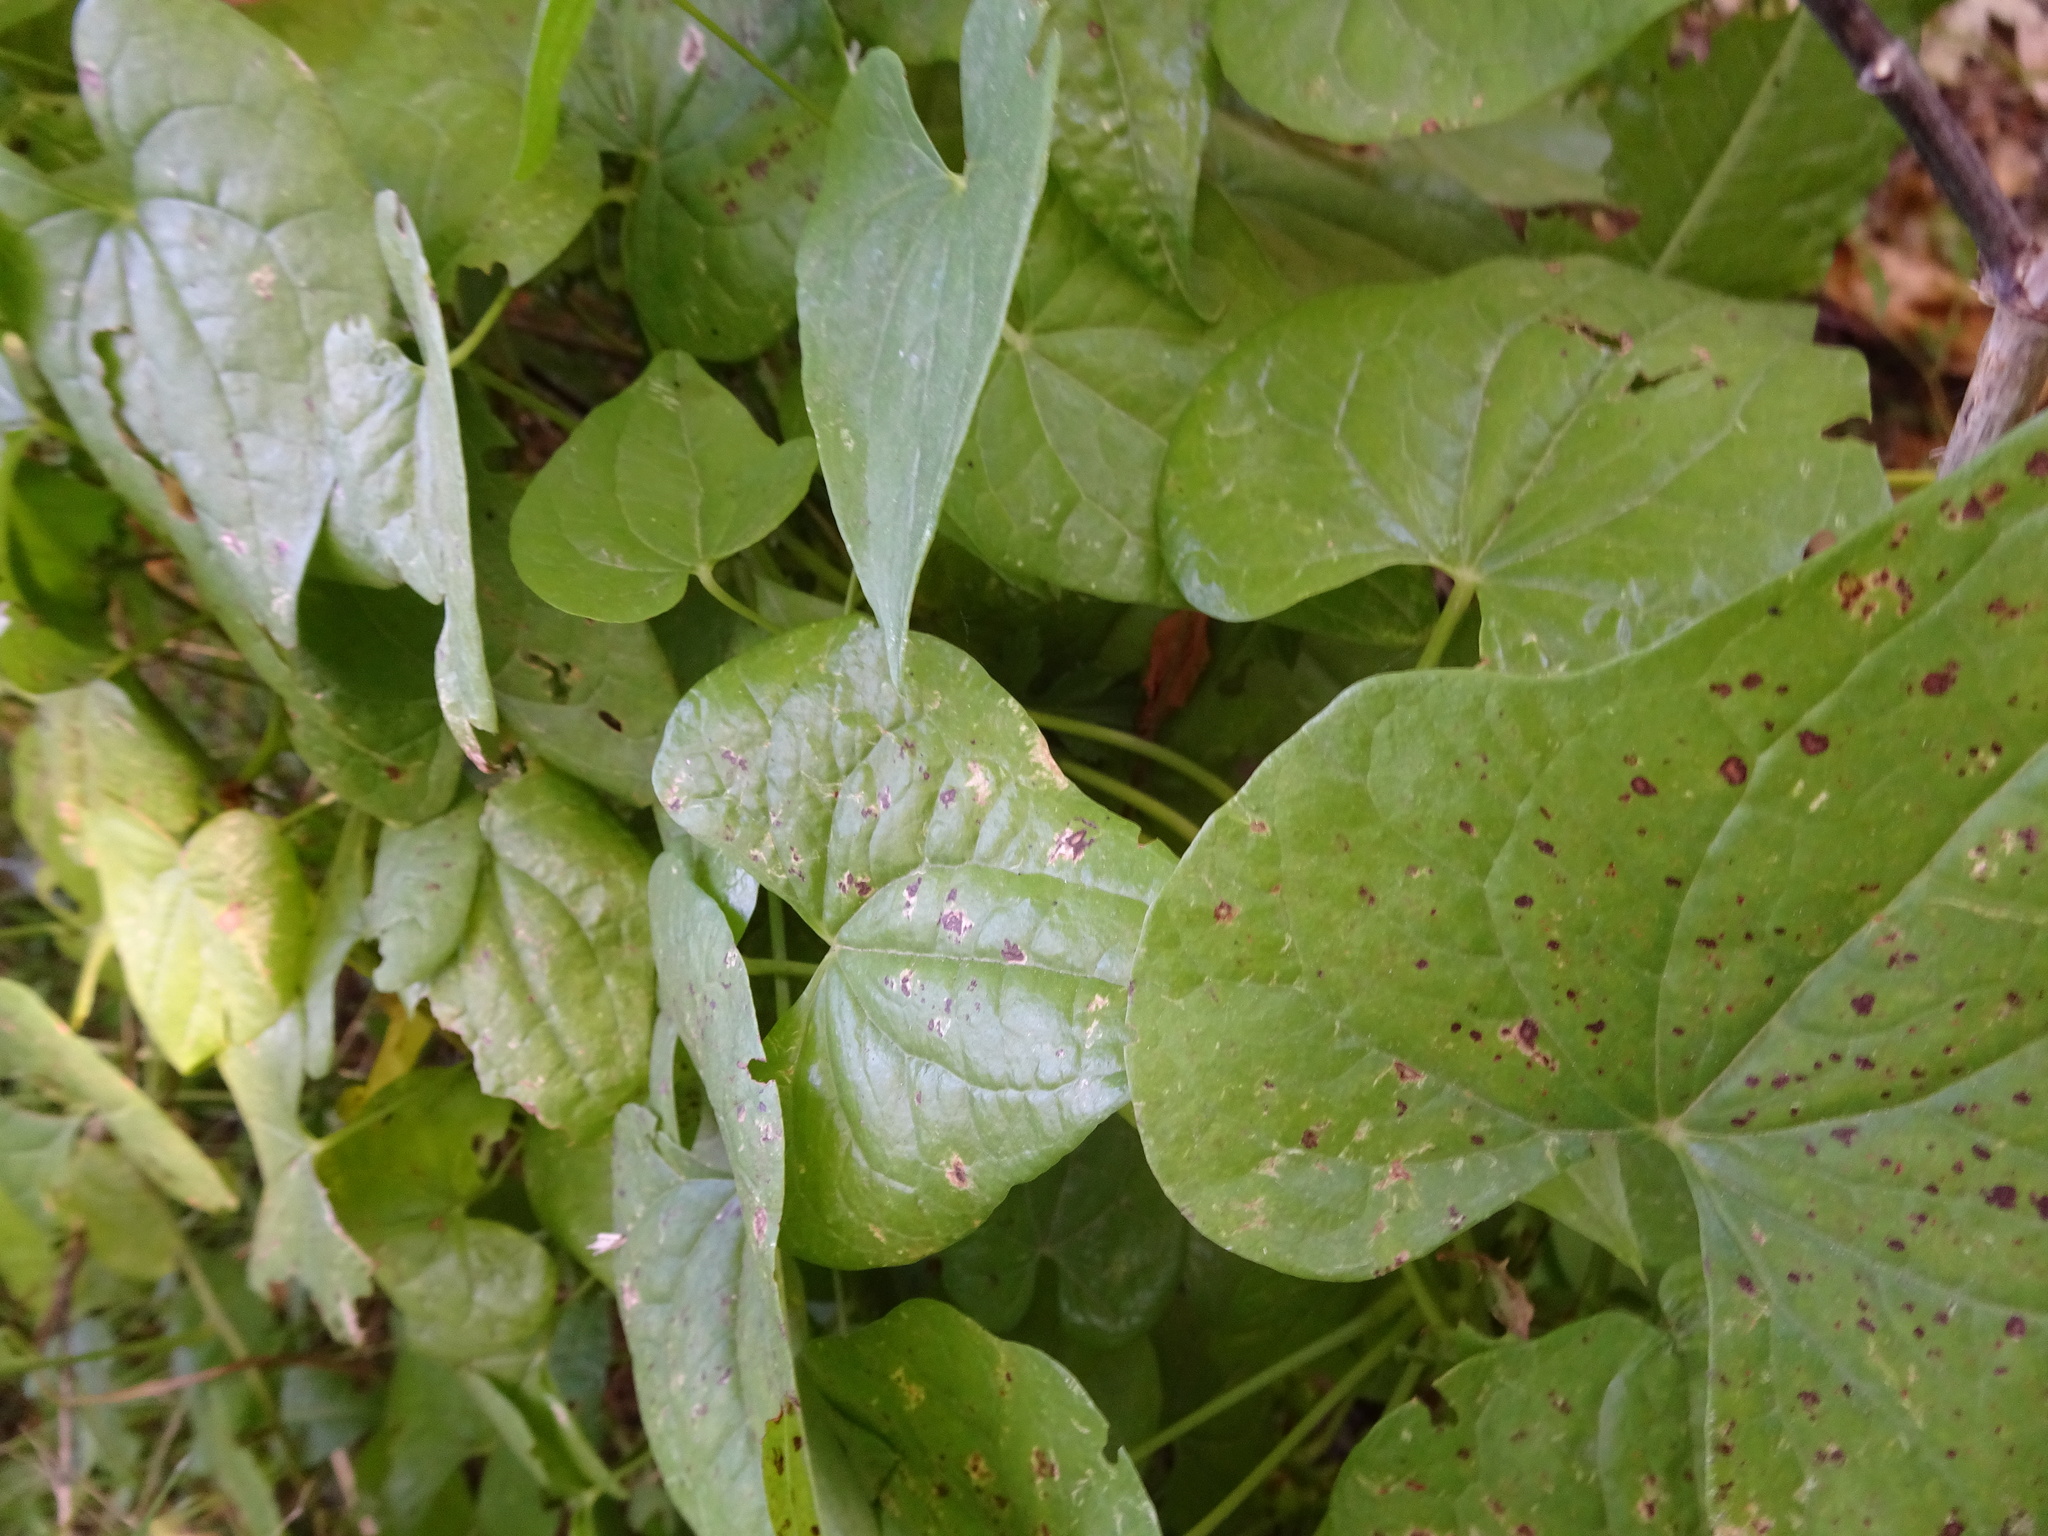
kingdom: Plantae
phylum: Tracheophyta
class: Liliopsida
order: Dioscoreales
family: Dioscoreaceae
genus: Dioscorea
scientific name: Dioscorea communis
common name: Black-bindweed
